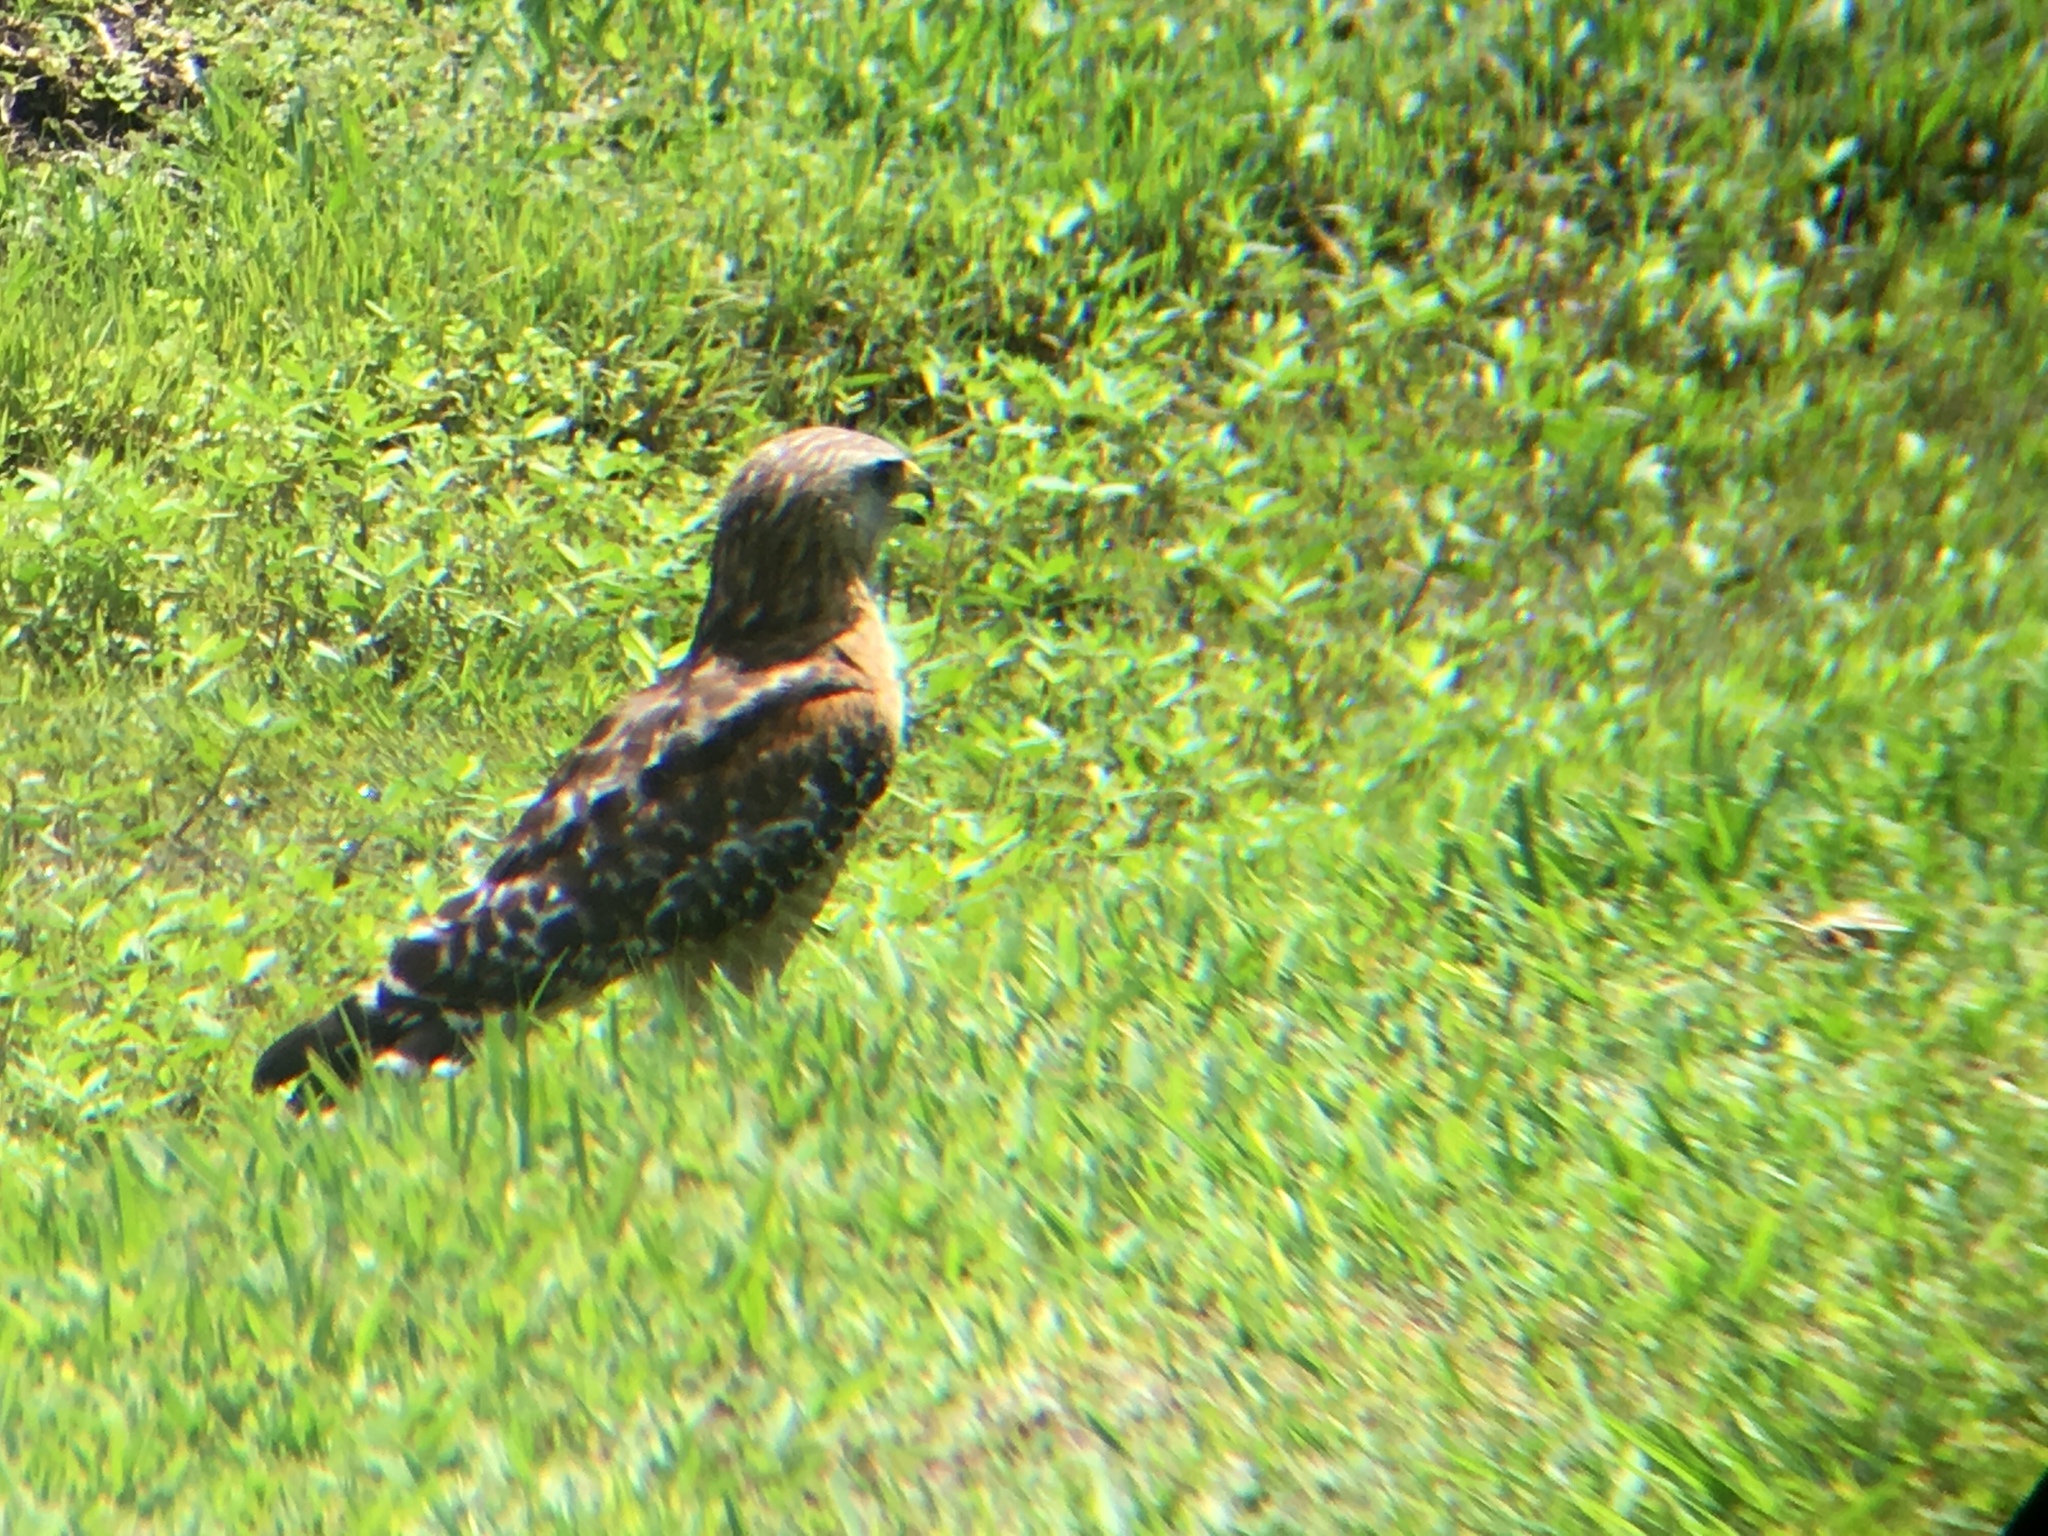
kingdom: Animalia
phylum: Chordata
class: Aves
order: Accipitriformes
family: Accipitridae
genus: Buteo
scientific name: Buteo lineatus
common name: Red-shouldered hawk
